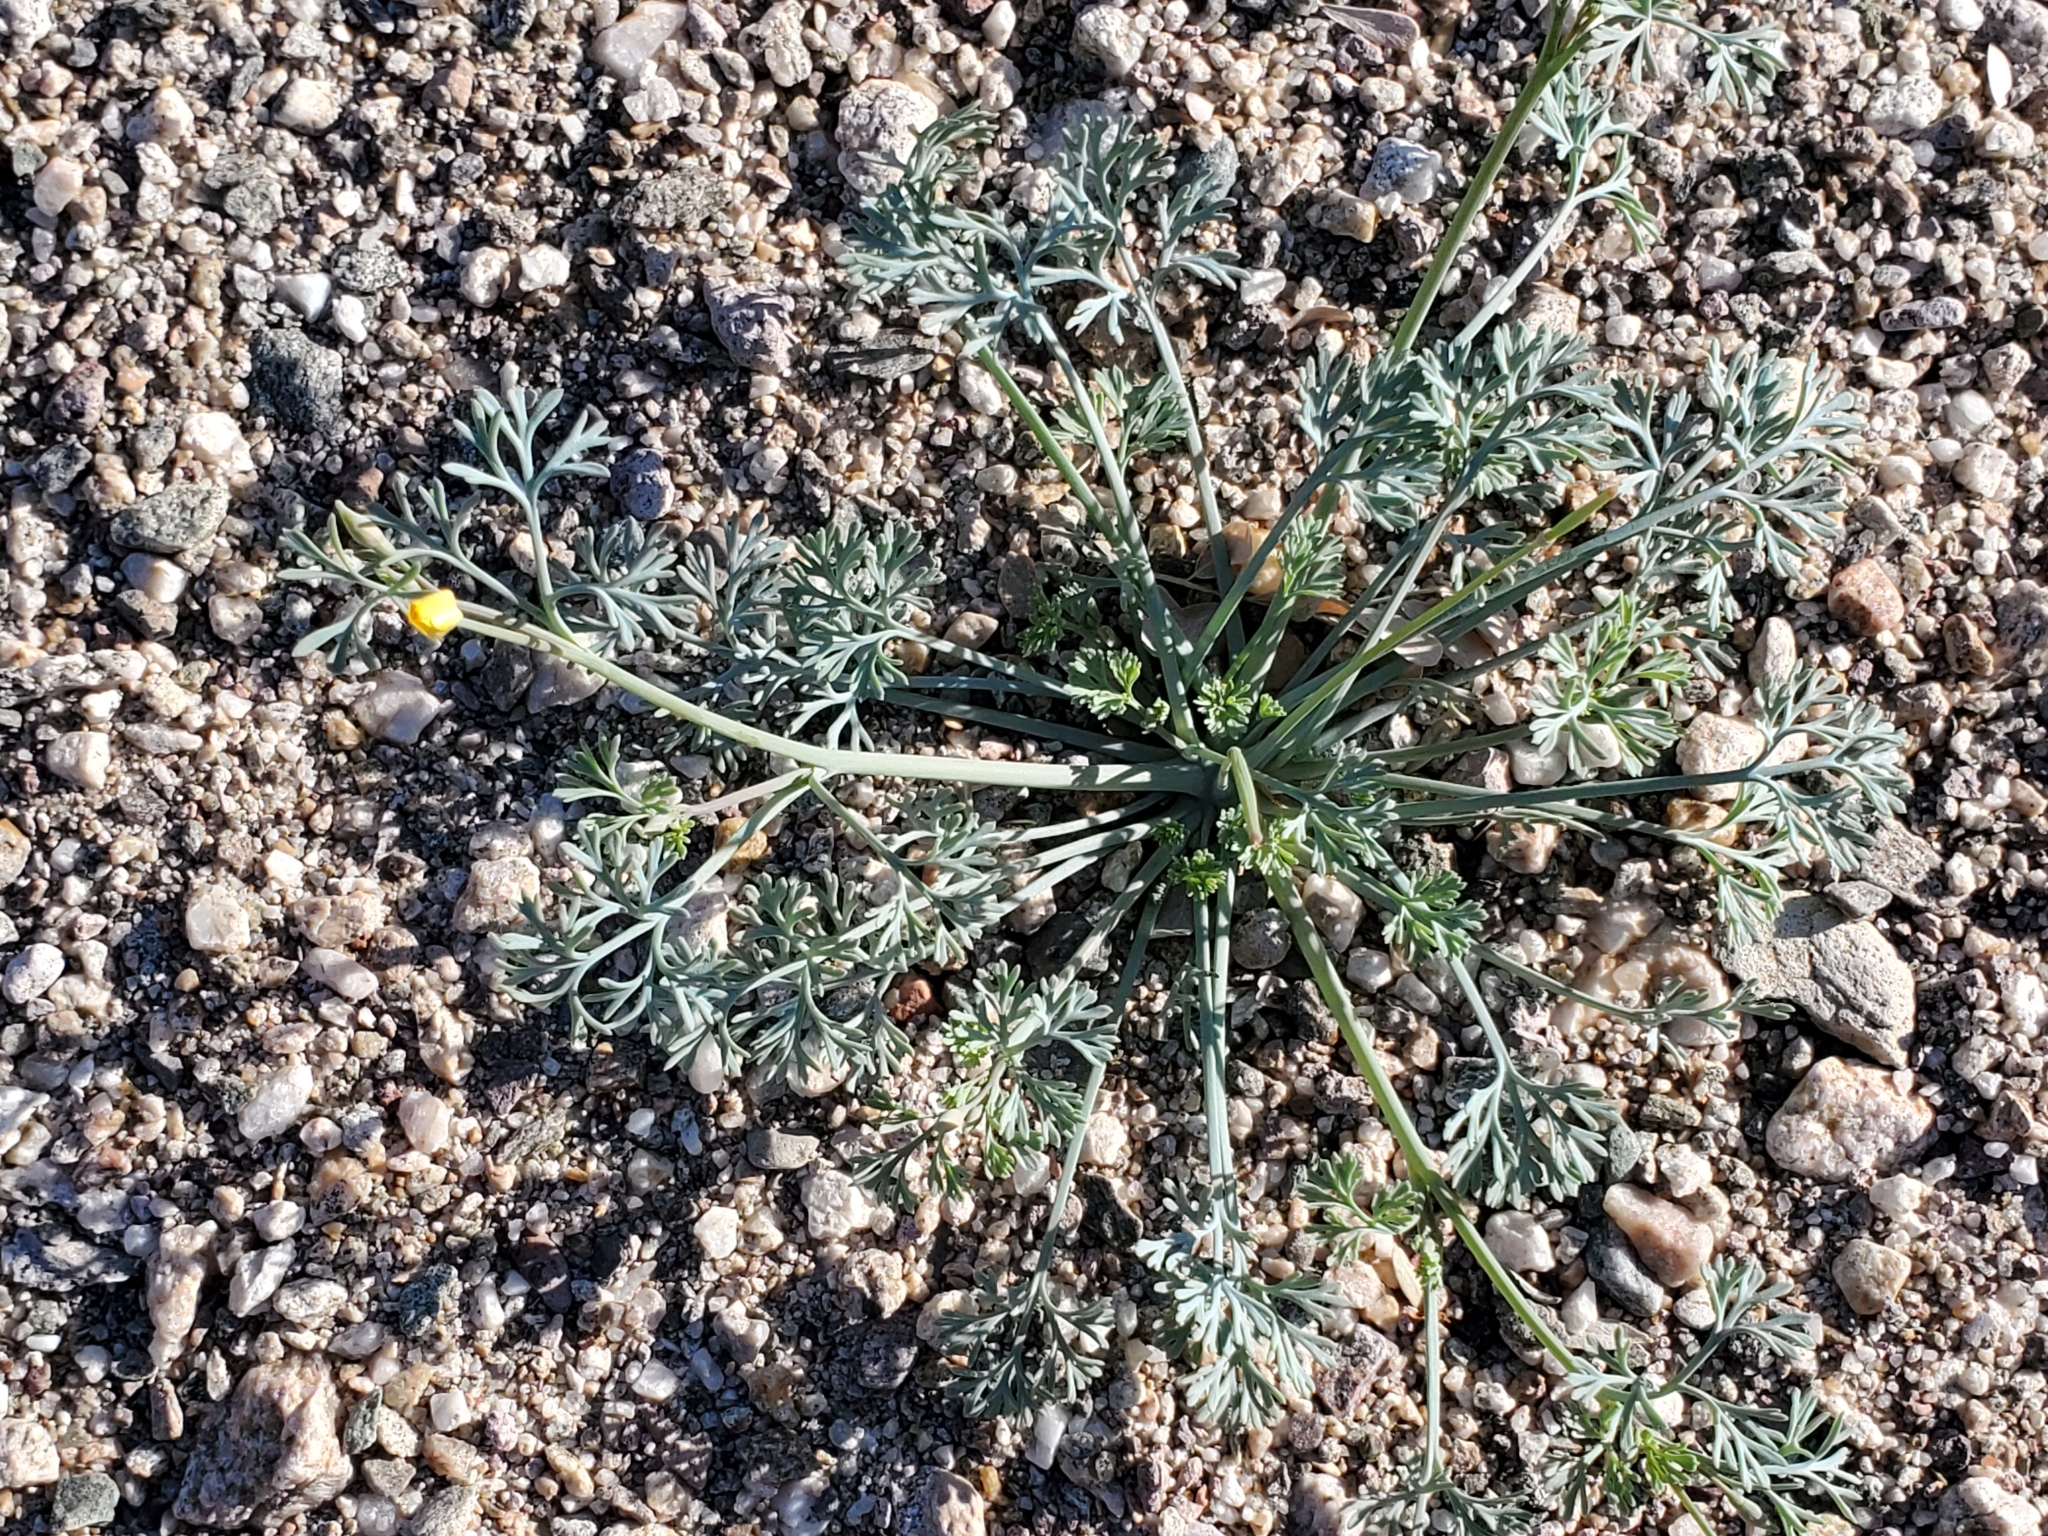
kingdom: Plantae
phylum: Tracheophyta
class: Magnoliopsida
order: Ranunculales
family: Papaveraceae
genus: Eschscholzia
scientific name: Eschscholzia minutiflora
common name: Small-flower california-poppy
